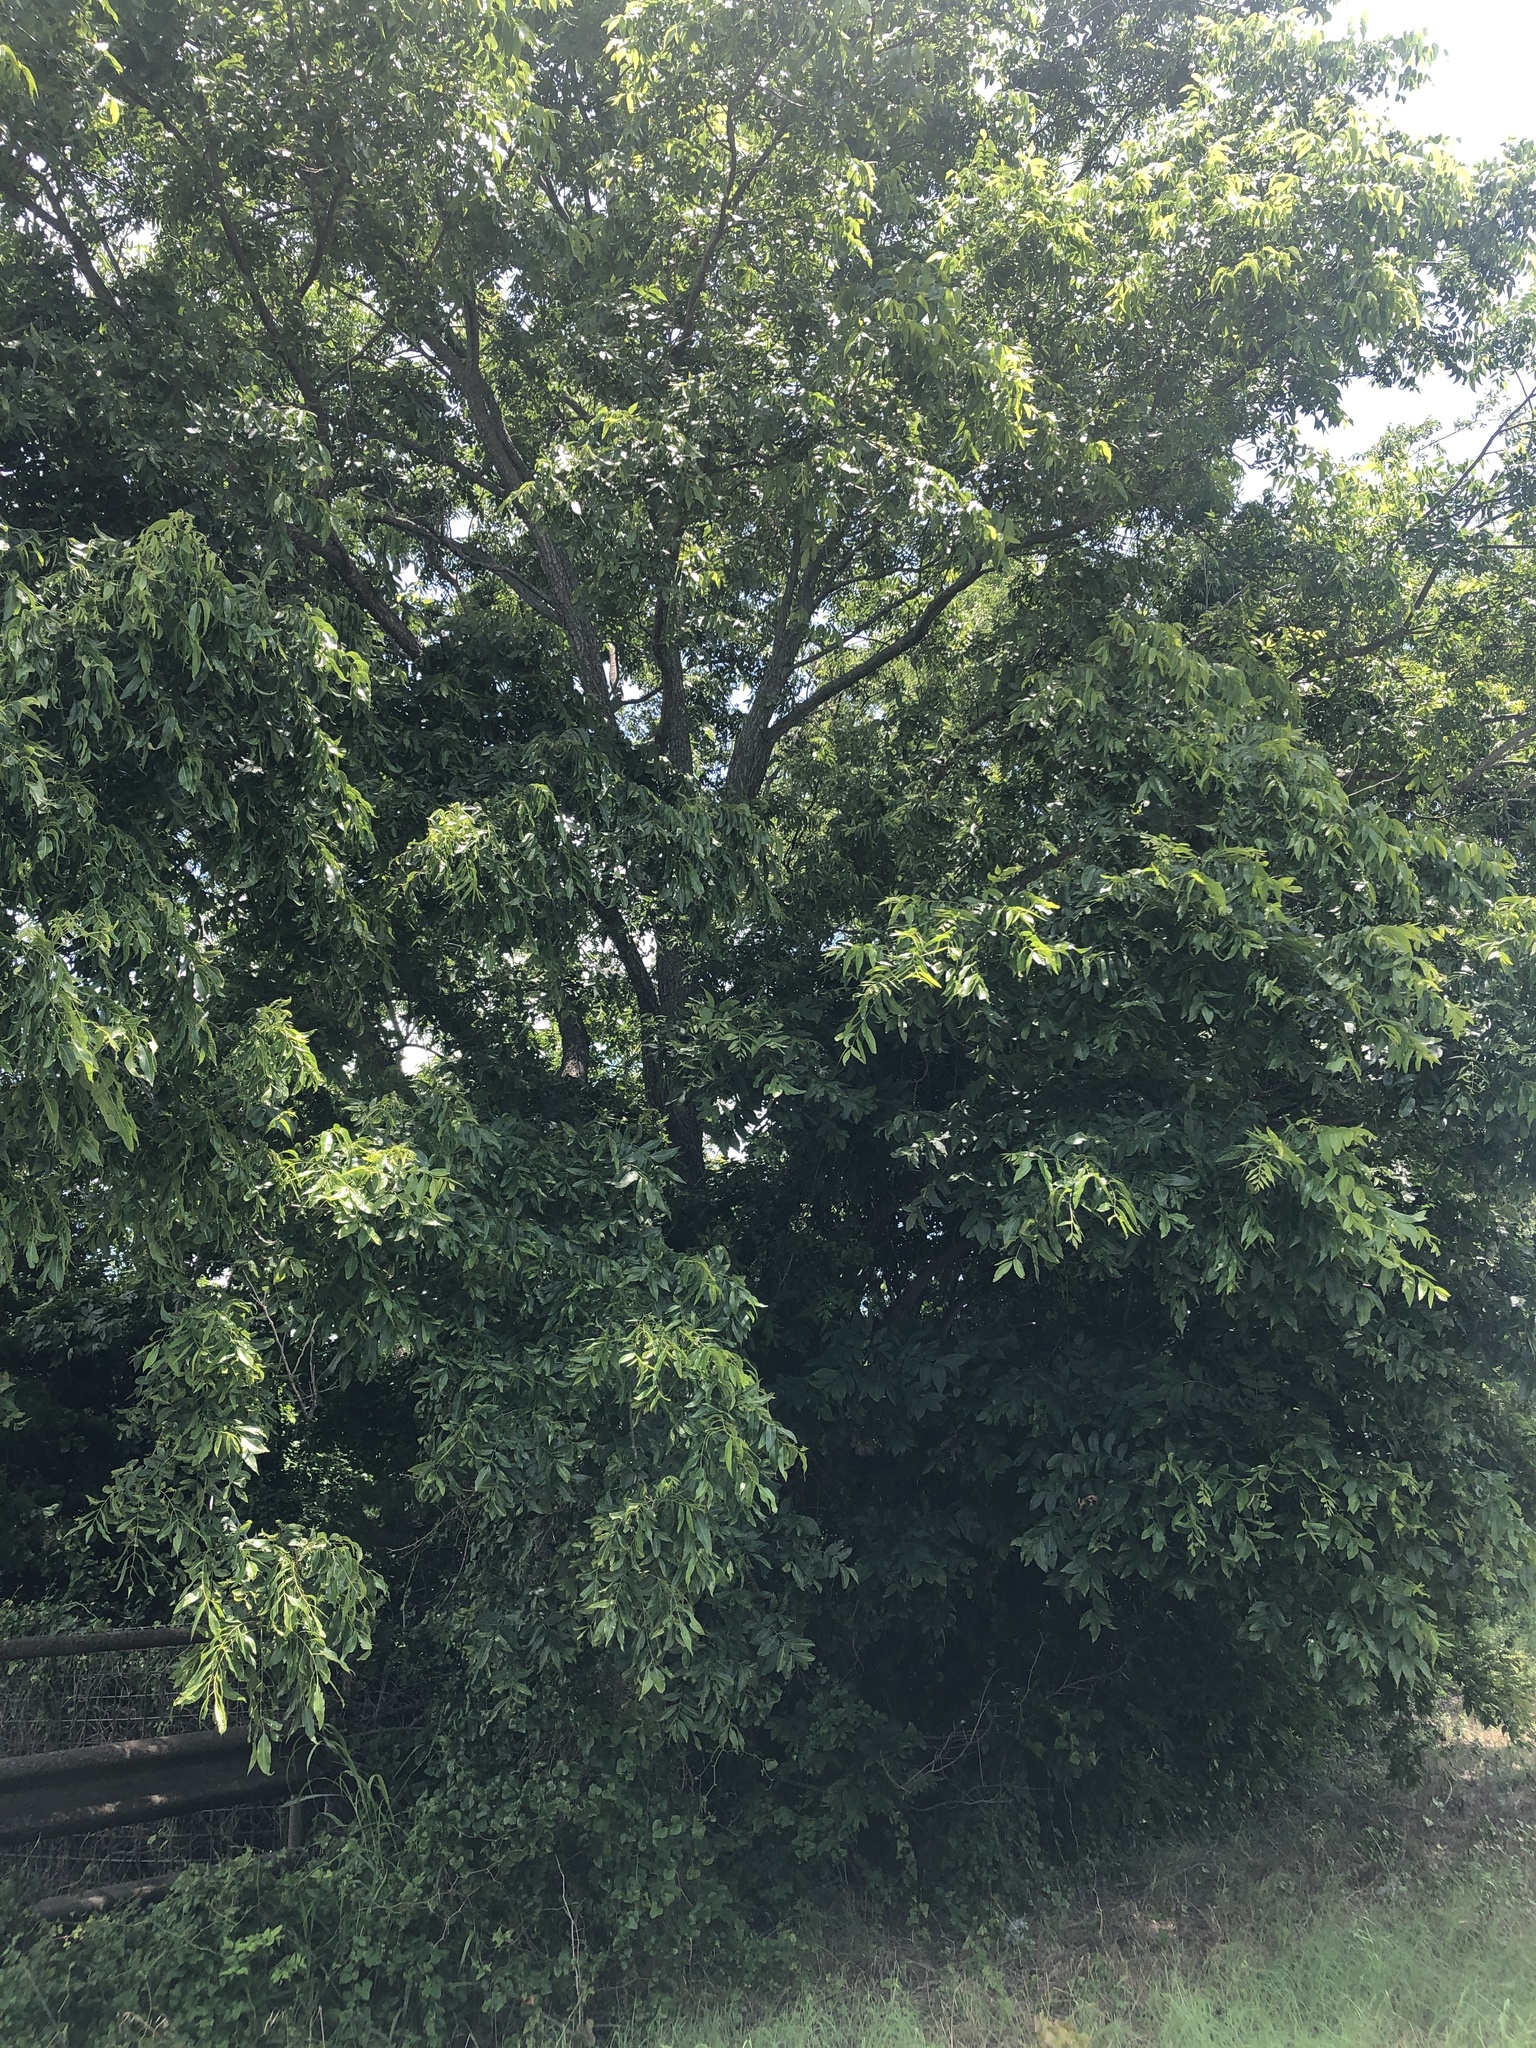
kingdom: Plantae
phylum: Tracheophyta
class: Magnoliopsida
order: Fagales
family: Juglandaceae
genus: Carya
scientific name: Carya illinoinensis
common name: Pecan
